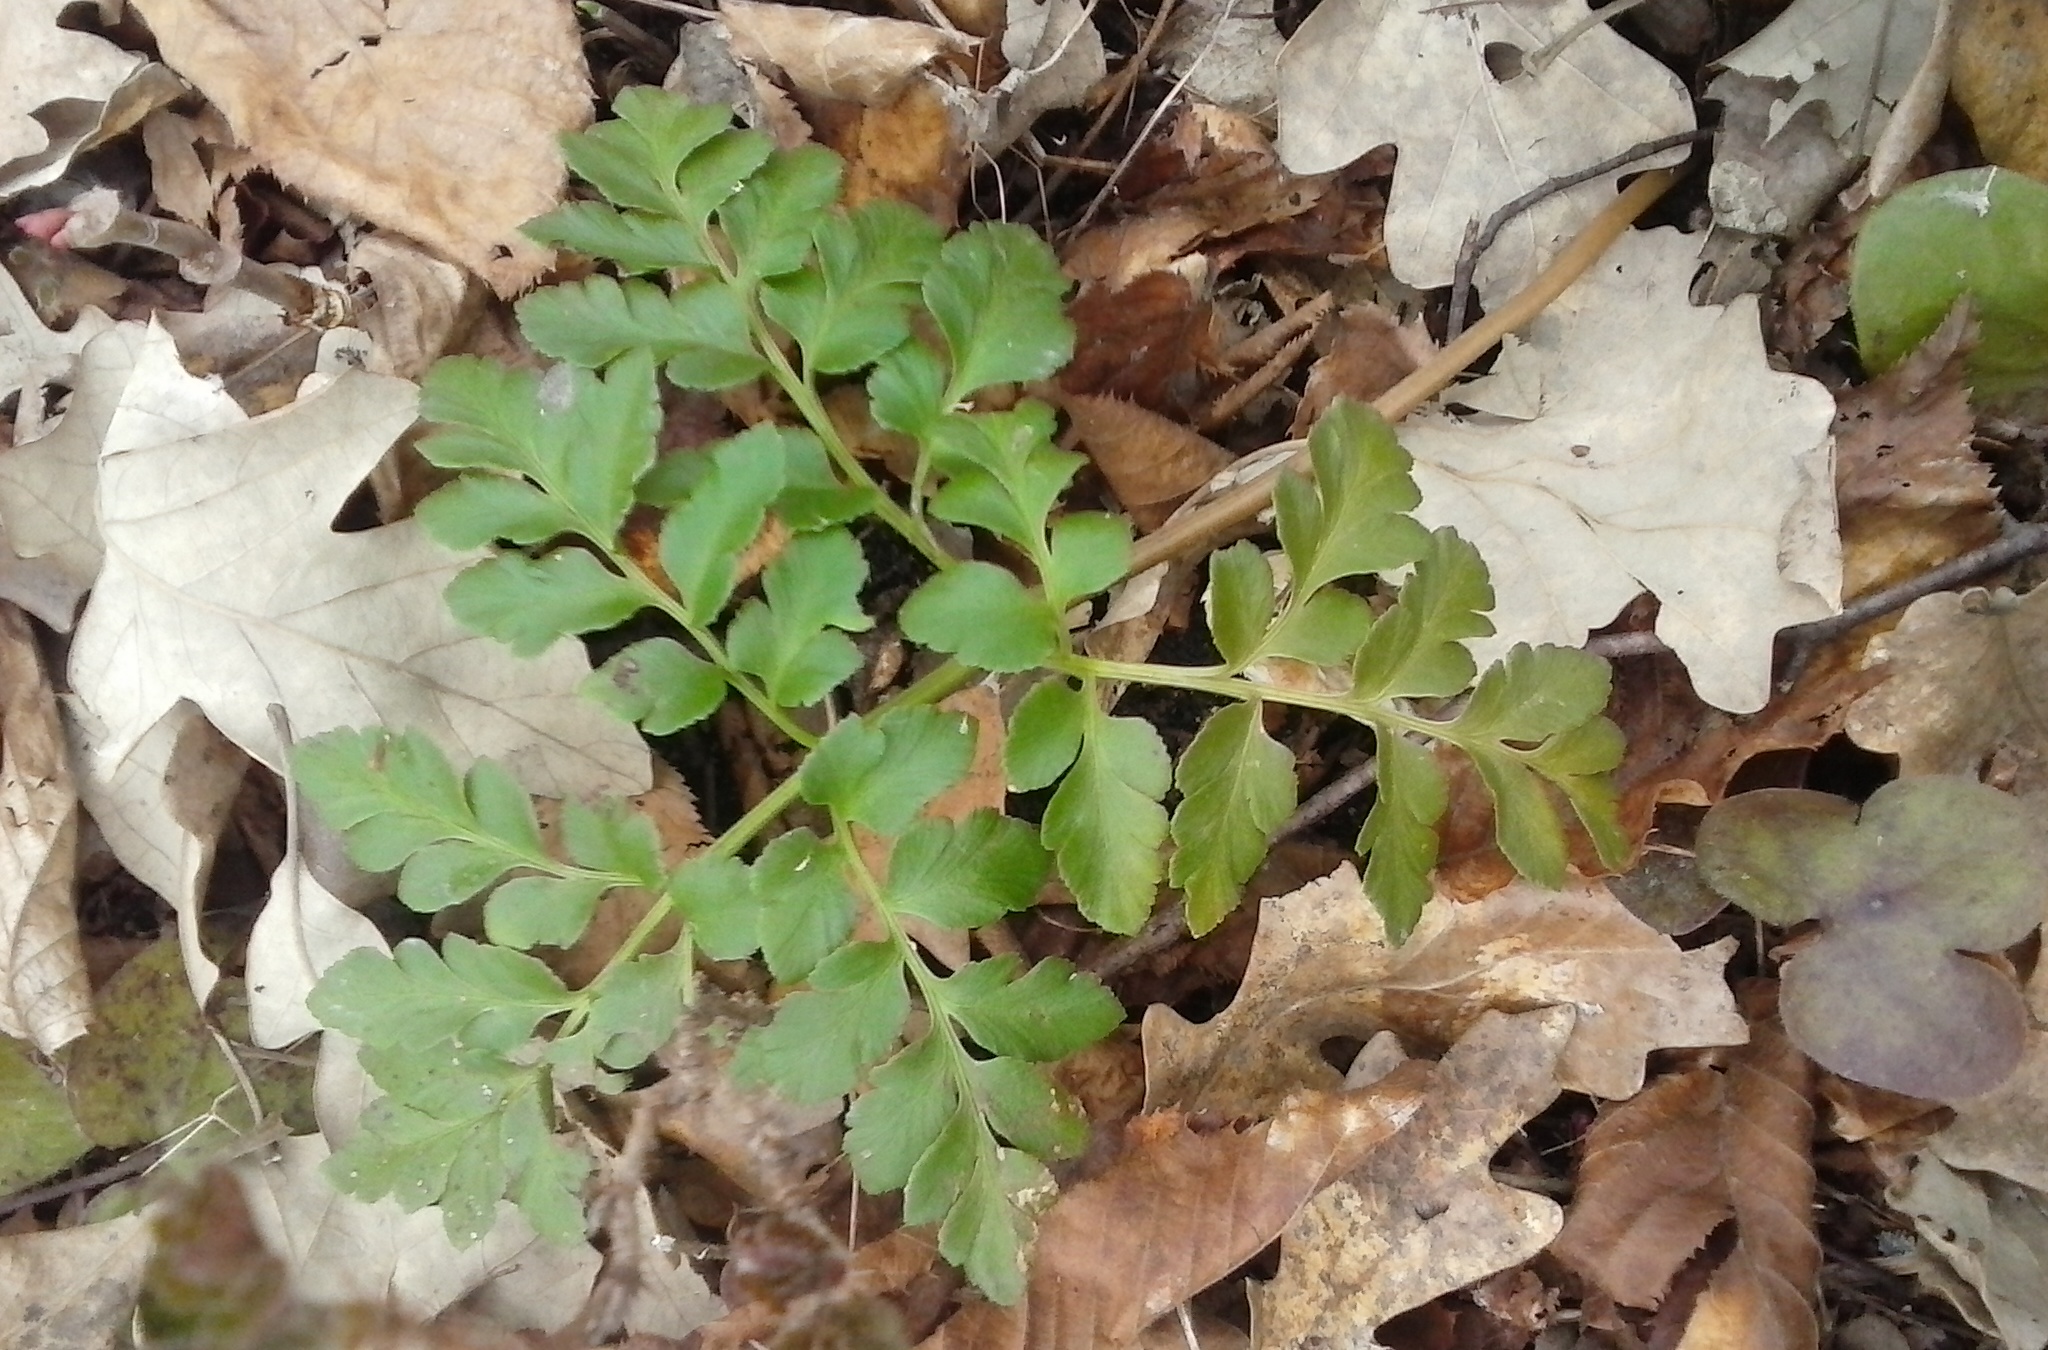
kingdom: Plantae
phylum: Tracheophyta
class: Polypodiopsida
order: Ophioglossales
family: Ophioglossaceae
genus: Sceptridium
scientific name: Sceptridium multifidum
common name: Leathery grape fern
